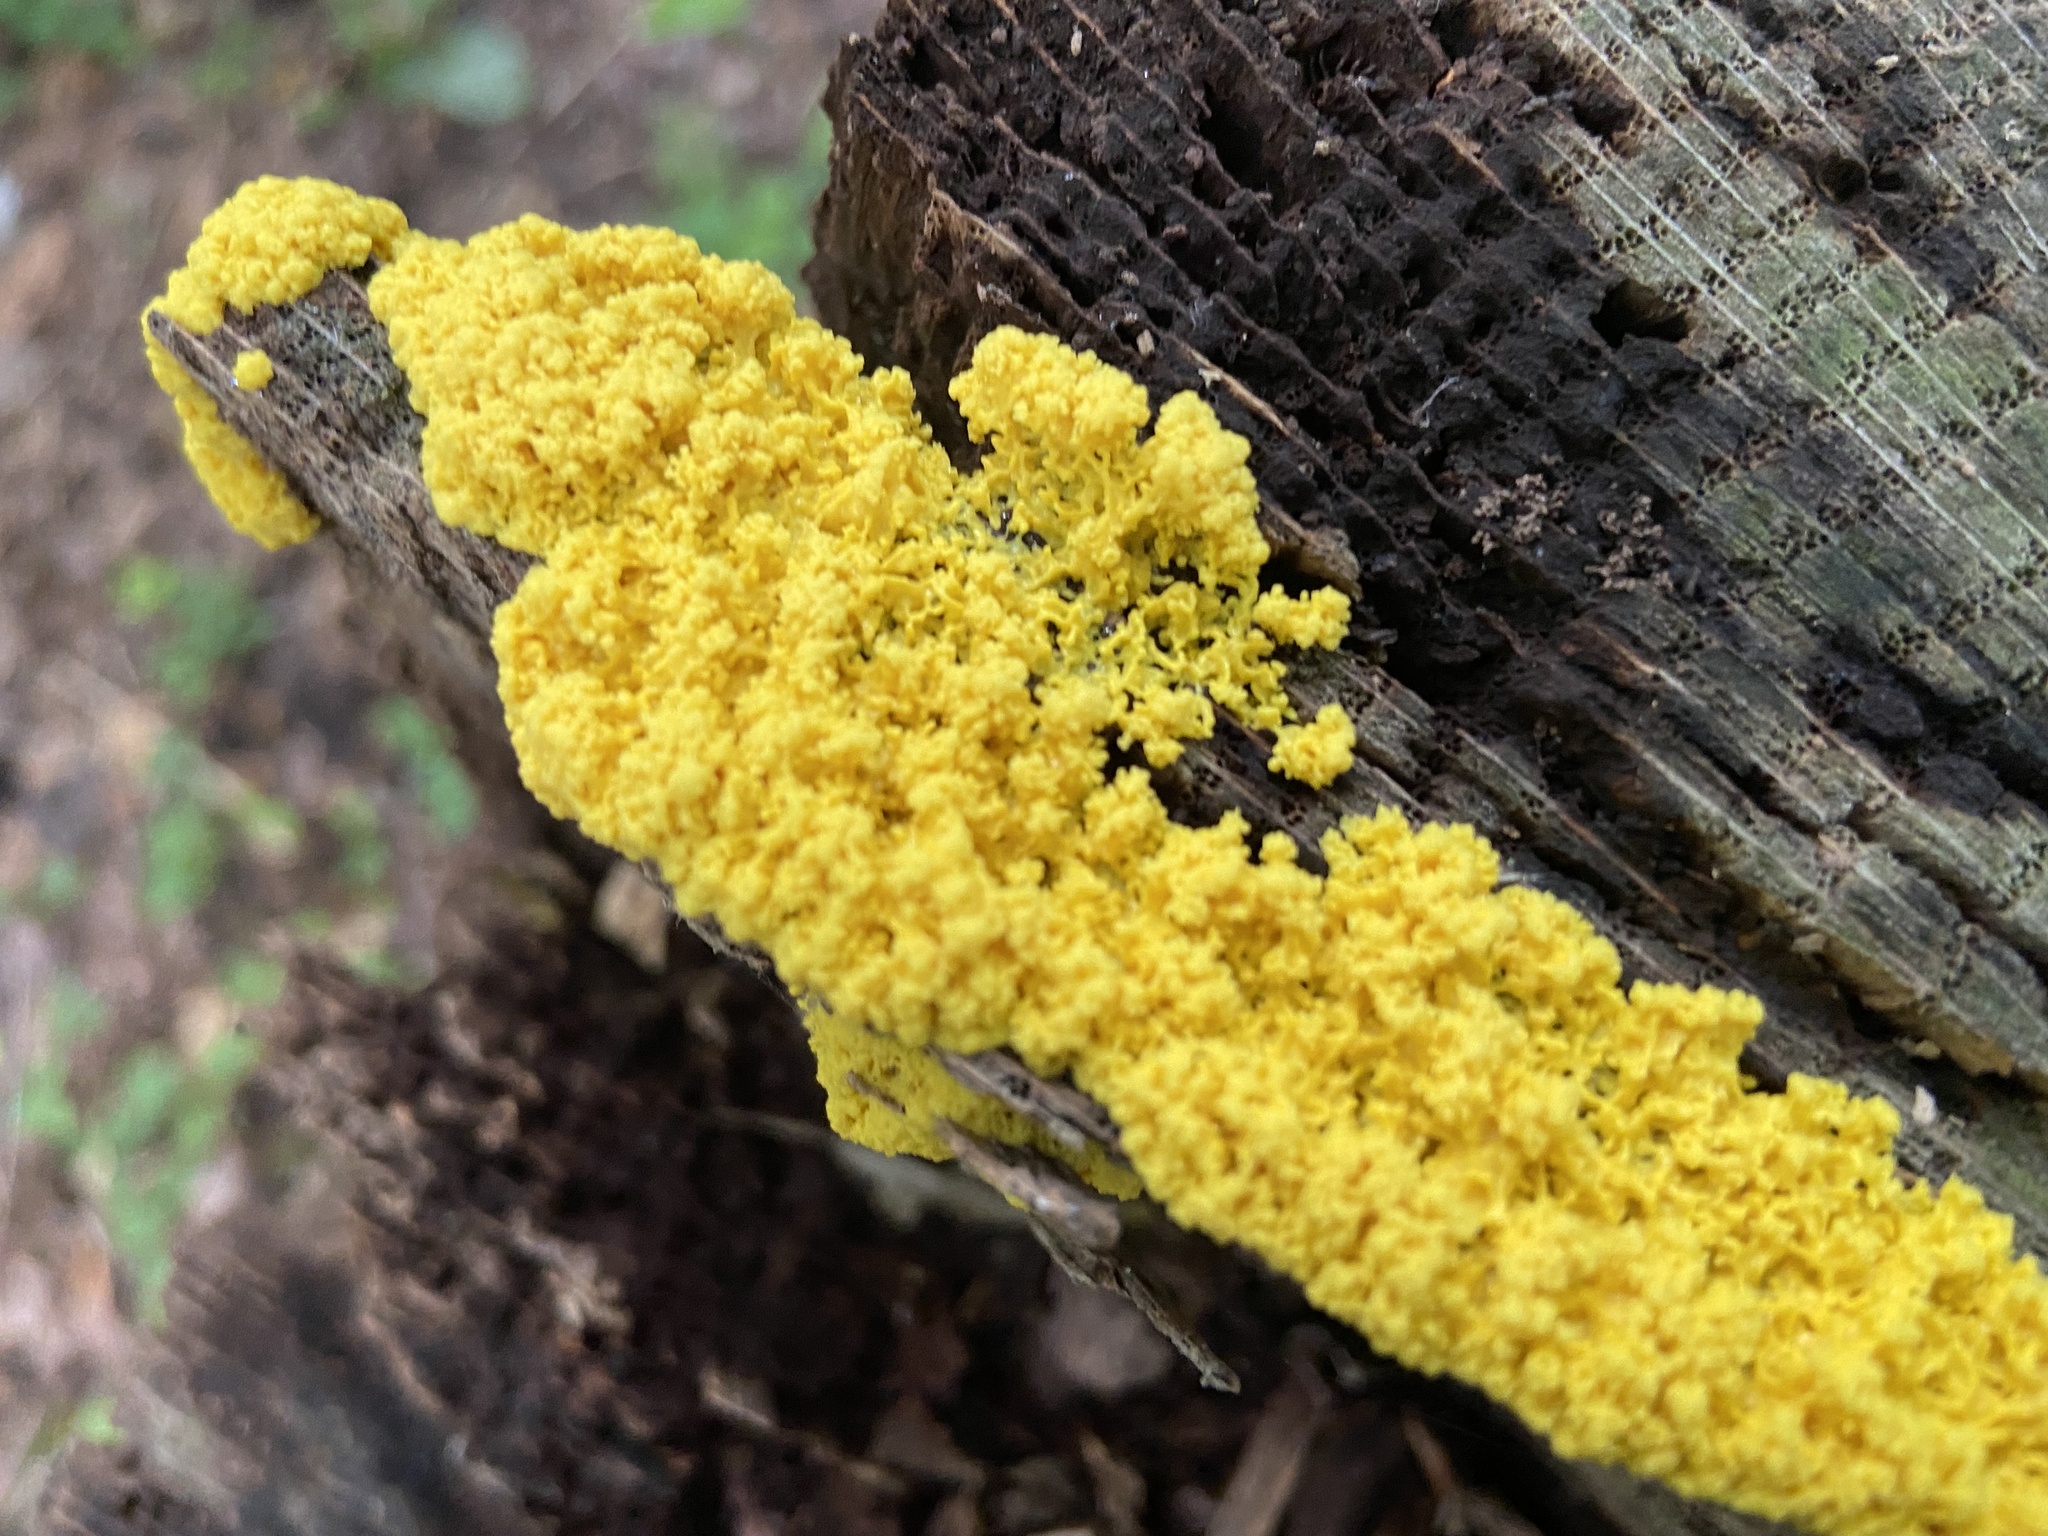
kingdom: Protozoa
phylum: Mycetozoa
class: Myxomycetes
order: Physarales
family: Physaraceae
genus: Fuligo
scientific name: Fuligo septica
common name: Dog vomit slime mold
